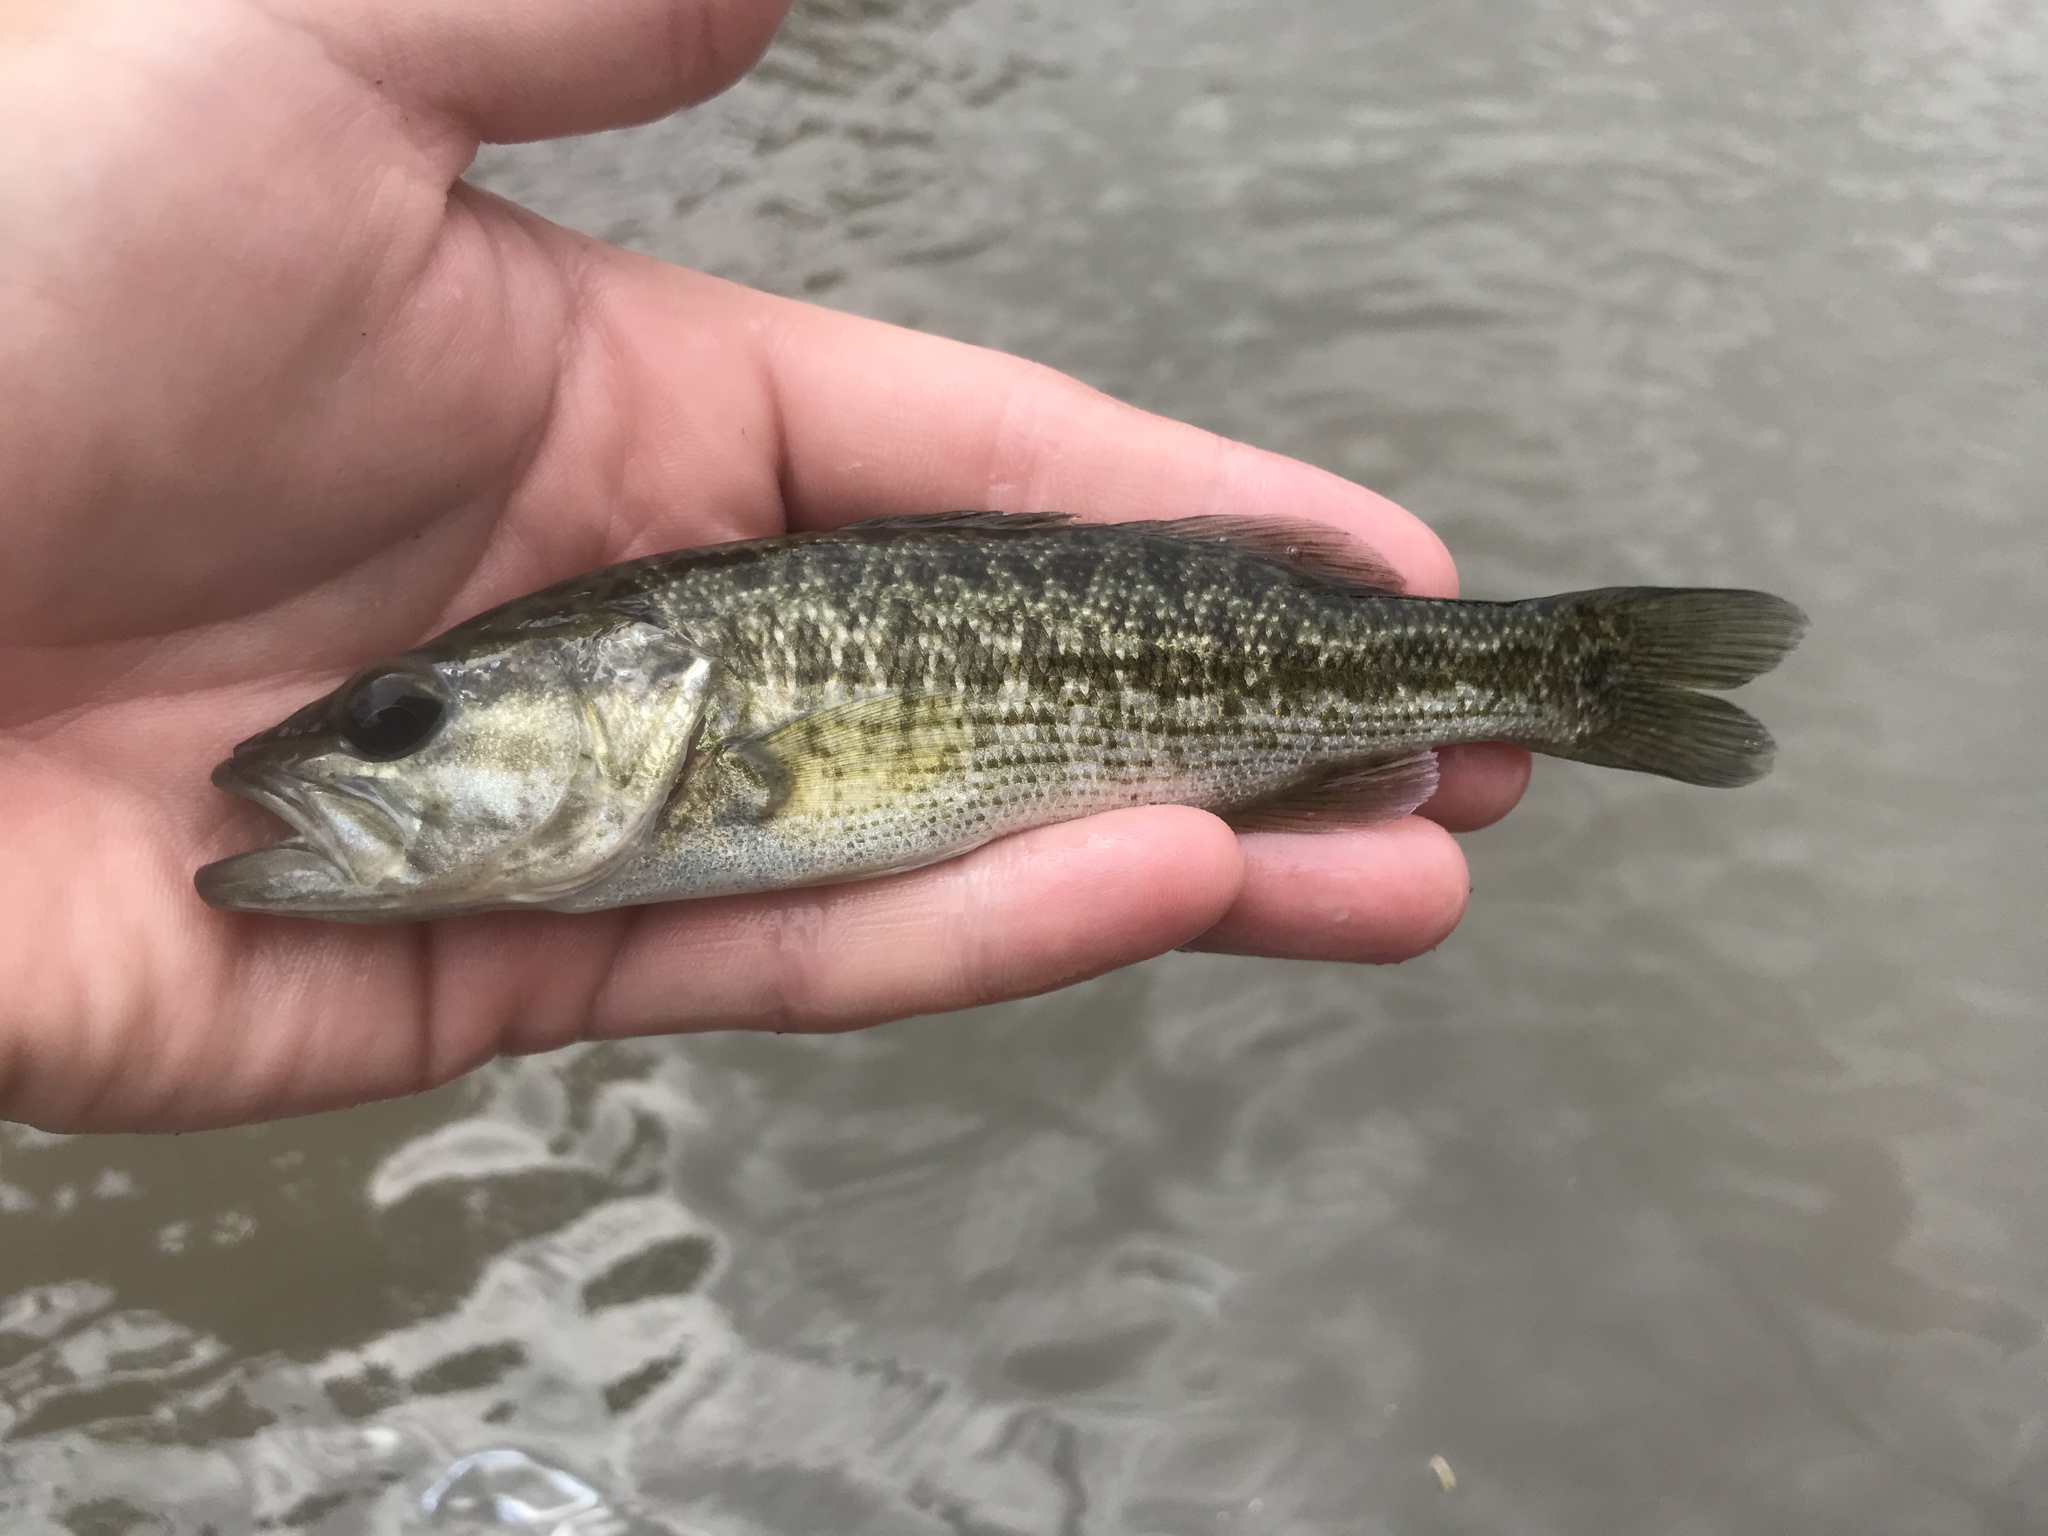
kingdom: Animalia
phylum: Chordata
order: Perciformes
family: Centrarchidae
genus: Micropterus
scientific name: Micropterus treculii
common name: Guadalupe bass
